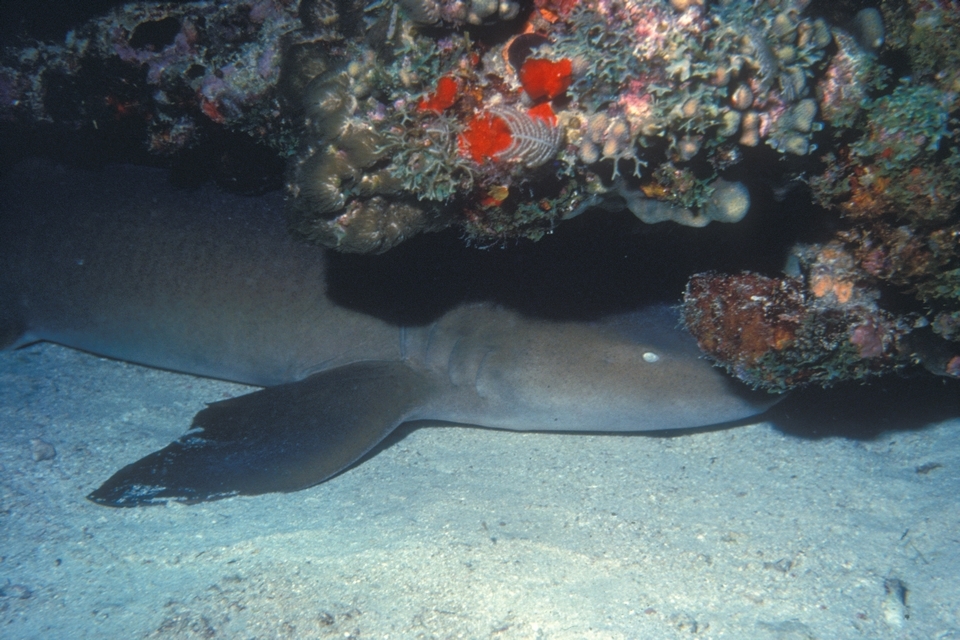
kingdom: Animalia
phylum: Chordata
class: Elasmobranchii
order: Orectolobiformes
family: Ginglymostomatidae
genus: Ginglymostoma
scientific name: Ginglymostoma cirratum
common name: Nurse shark
